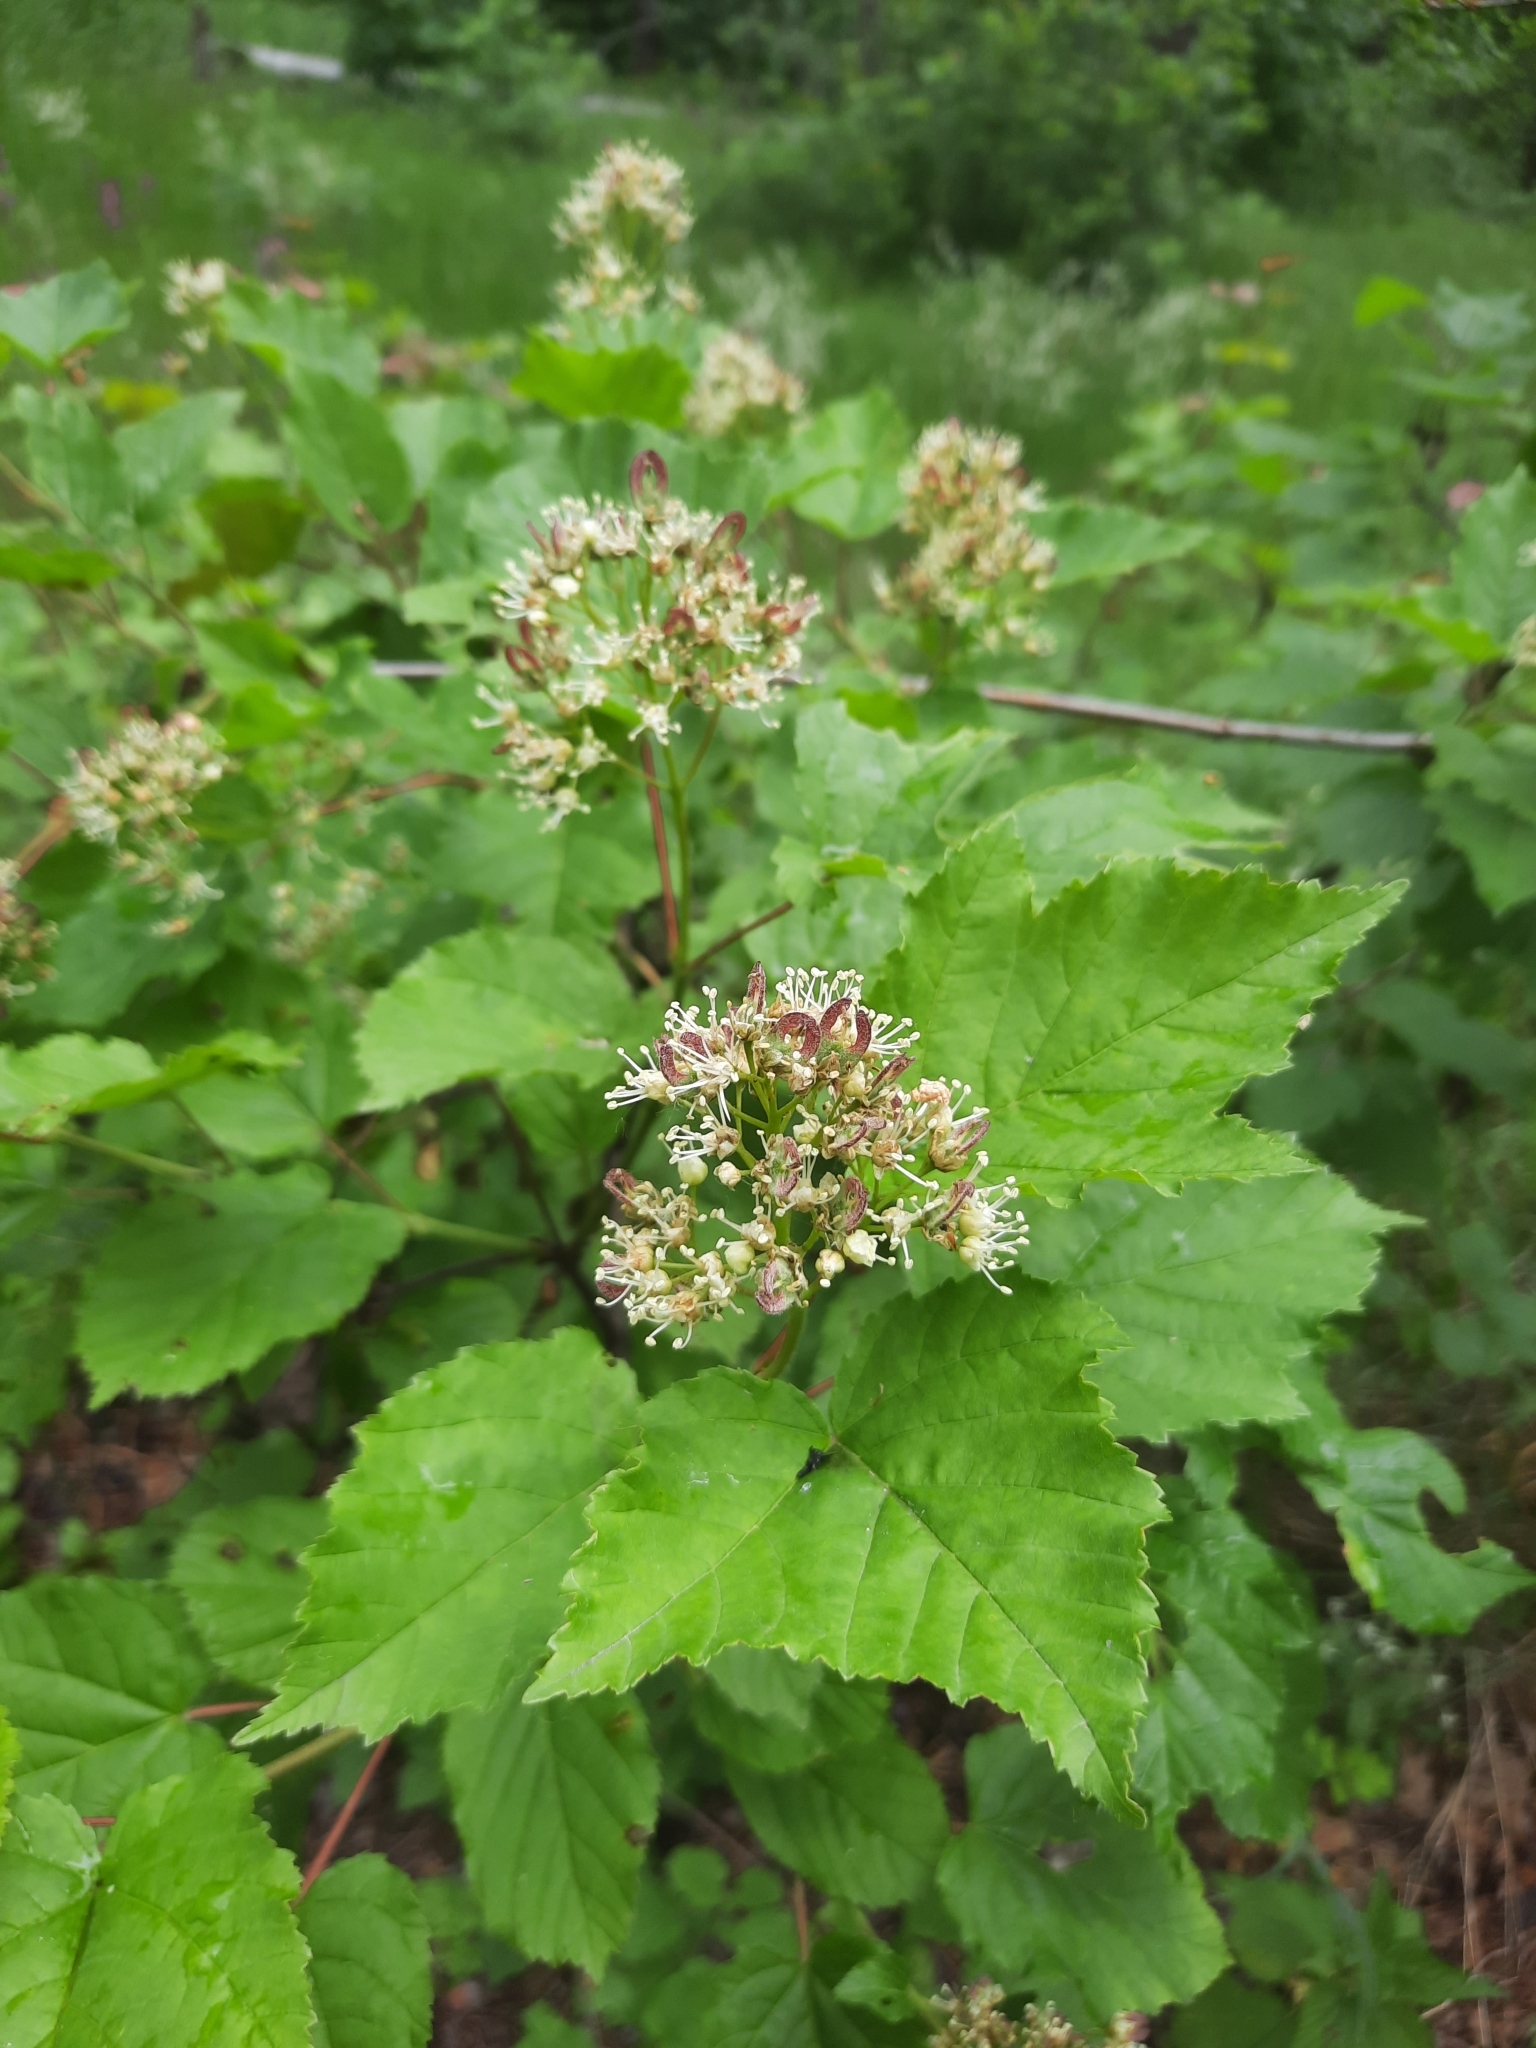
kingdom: Plantae
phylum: Tracheophyta
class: Magnoliopsida
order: Sapindales
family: Sapindaceae
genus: Acer
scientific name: Acer tataricum
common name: Tartar maple
